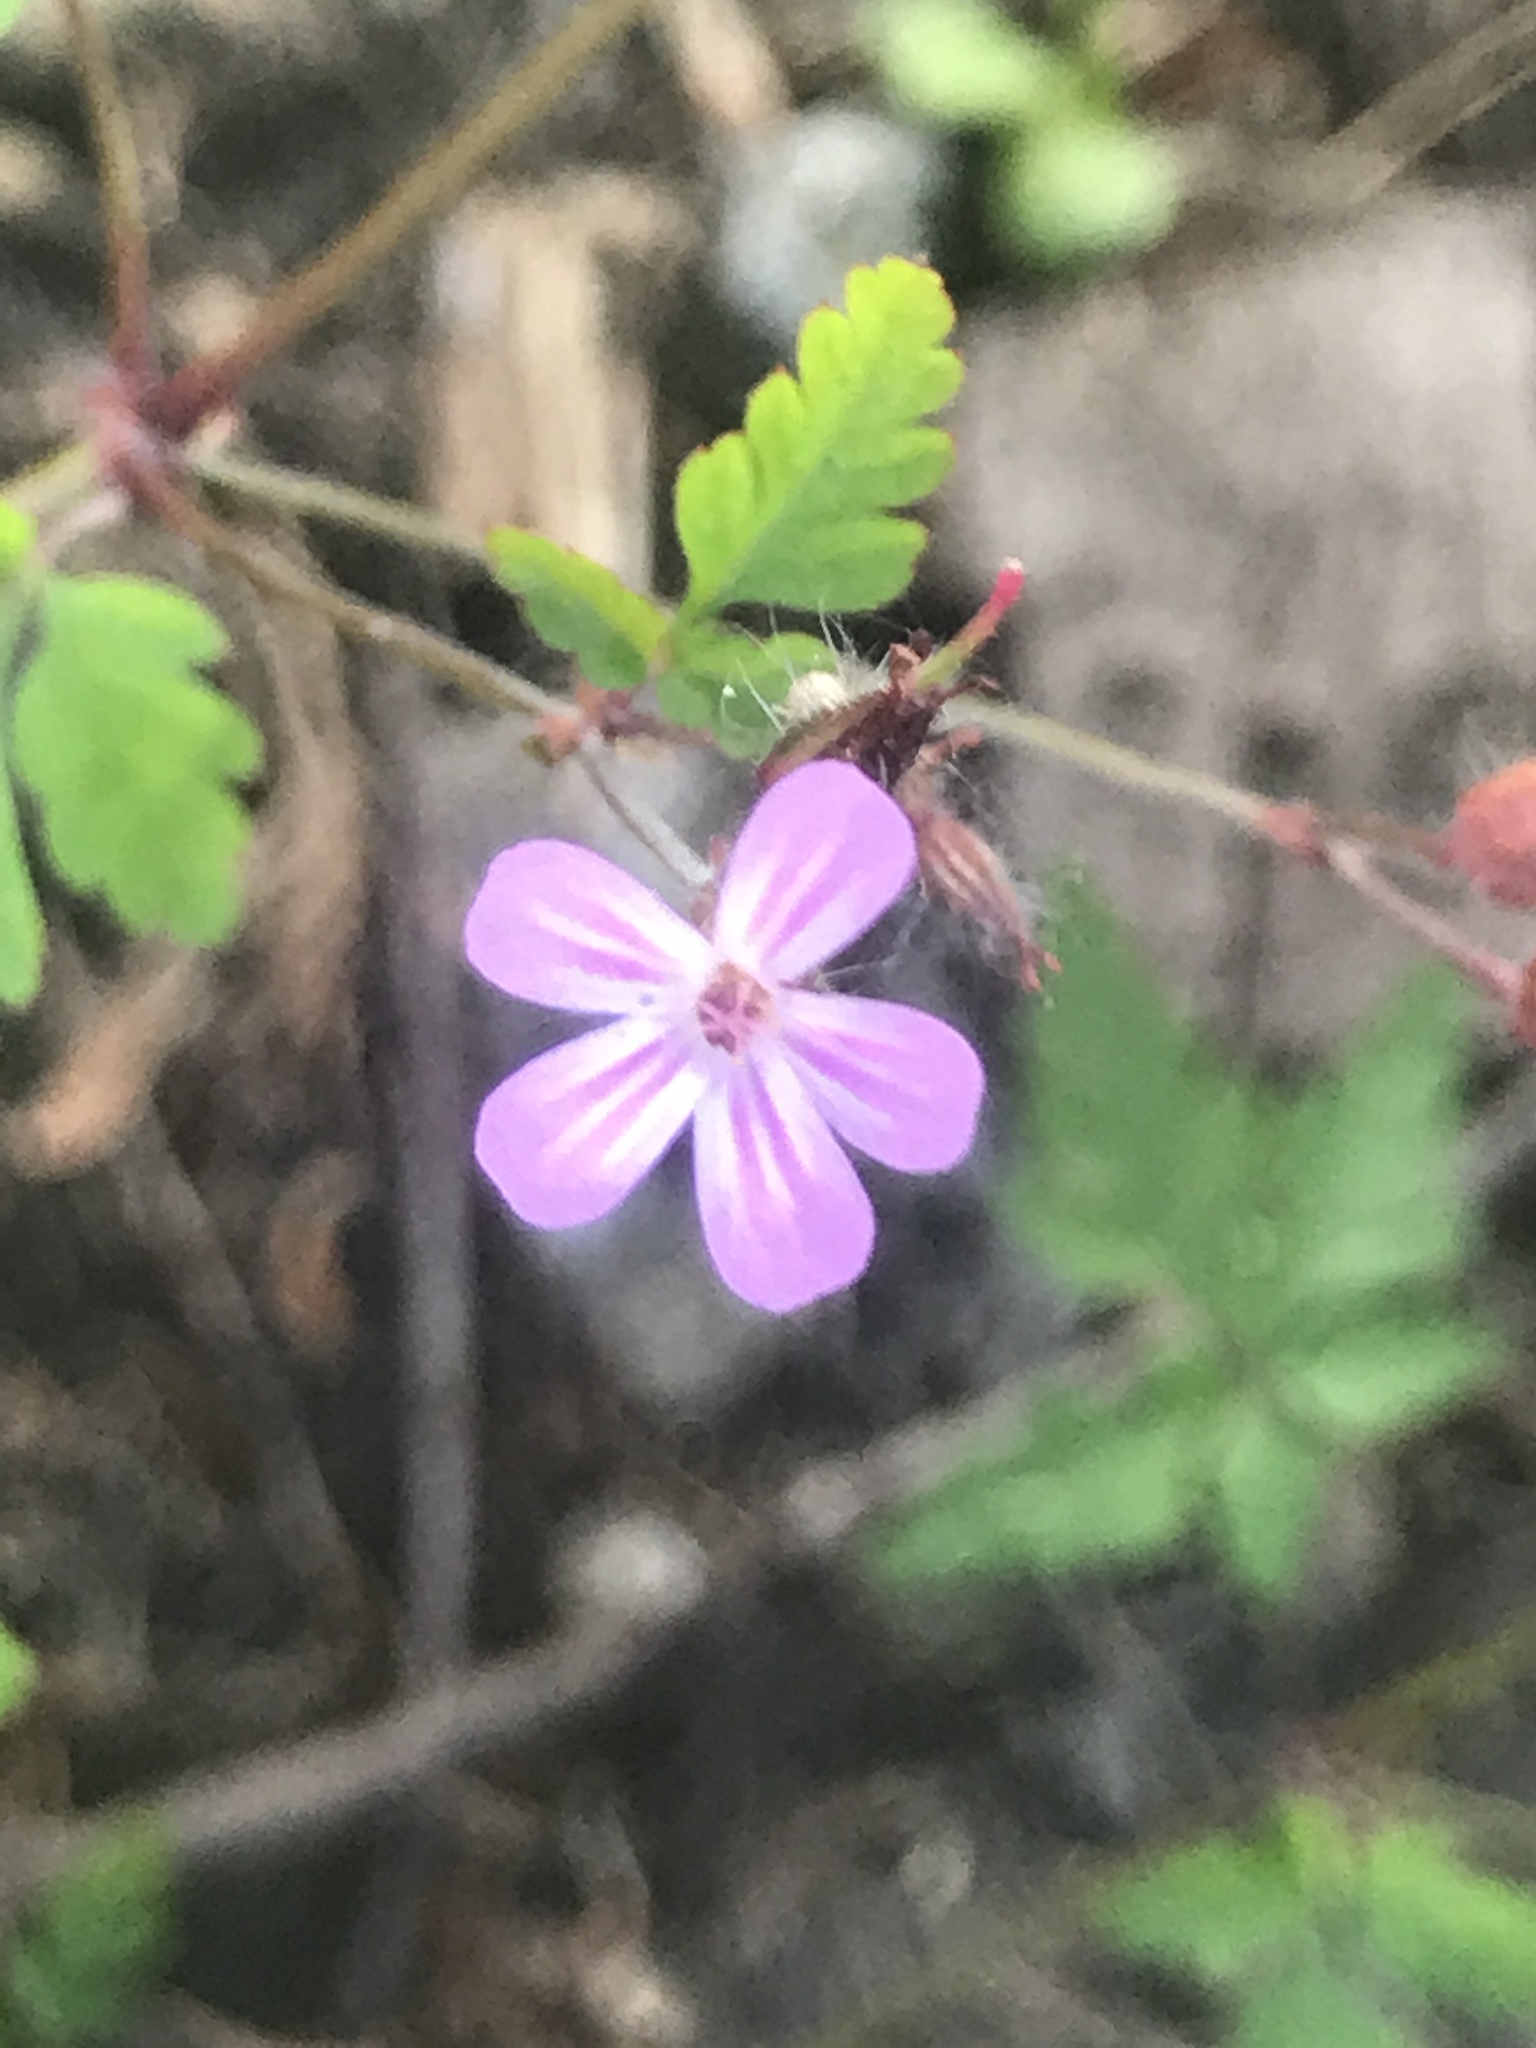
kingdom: Plantae
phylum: Tracheophyta
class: Magnoliopsida
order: Geraniales
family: Geraniaceae
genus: Geranium
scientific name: Geranium robertianum
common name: Herb-robert
